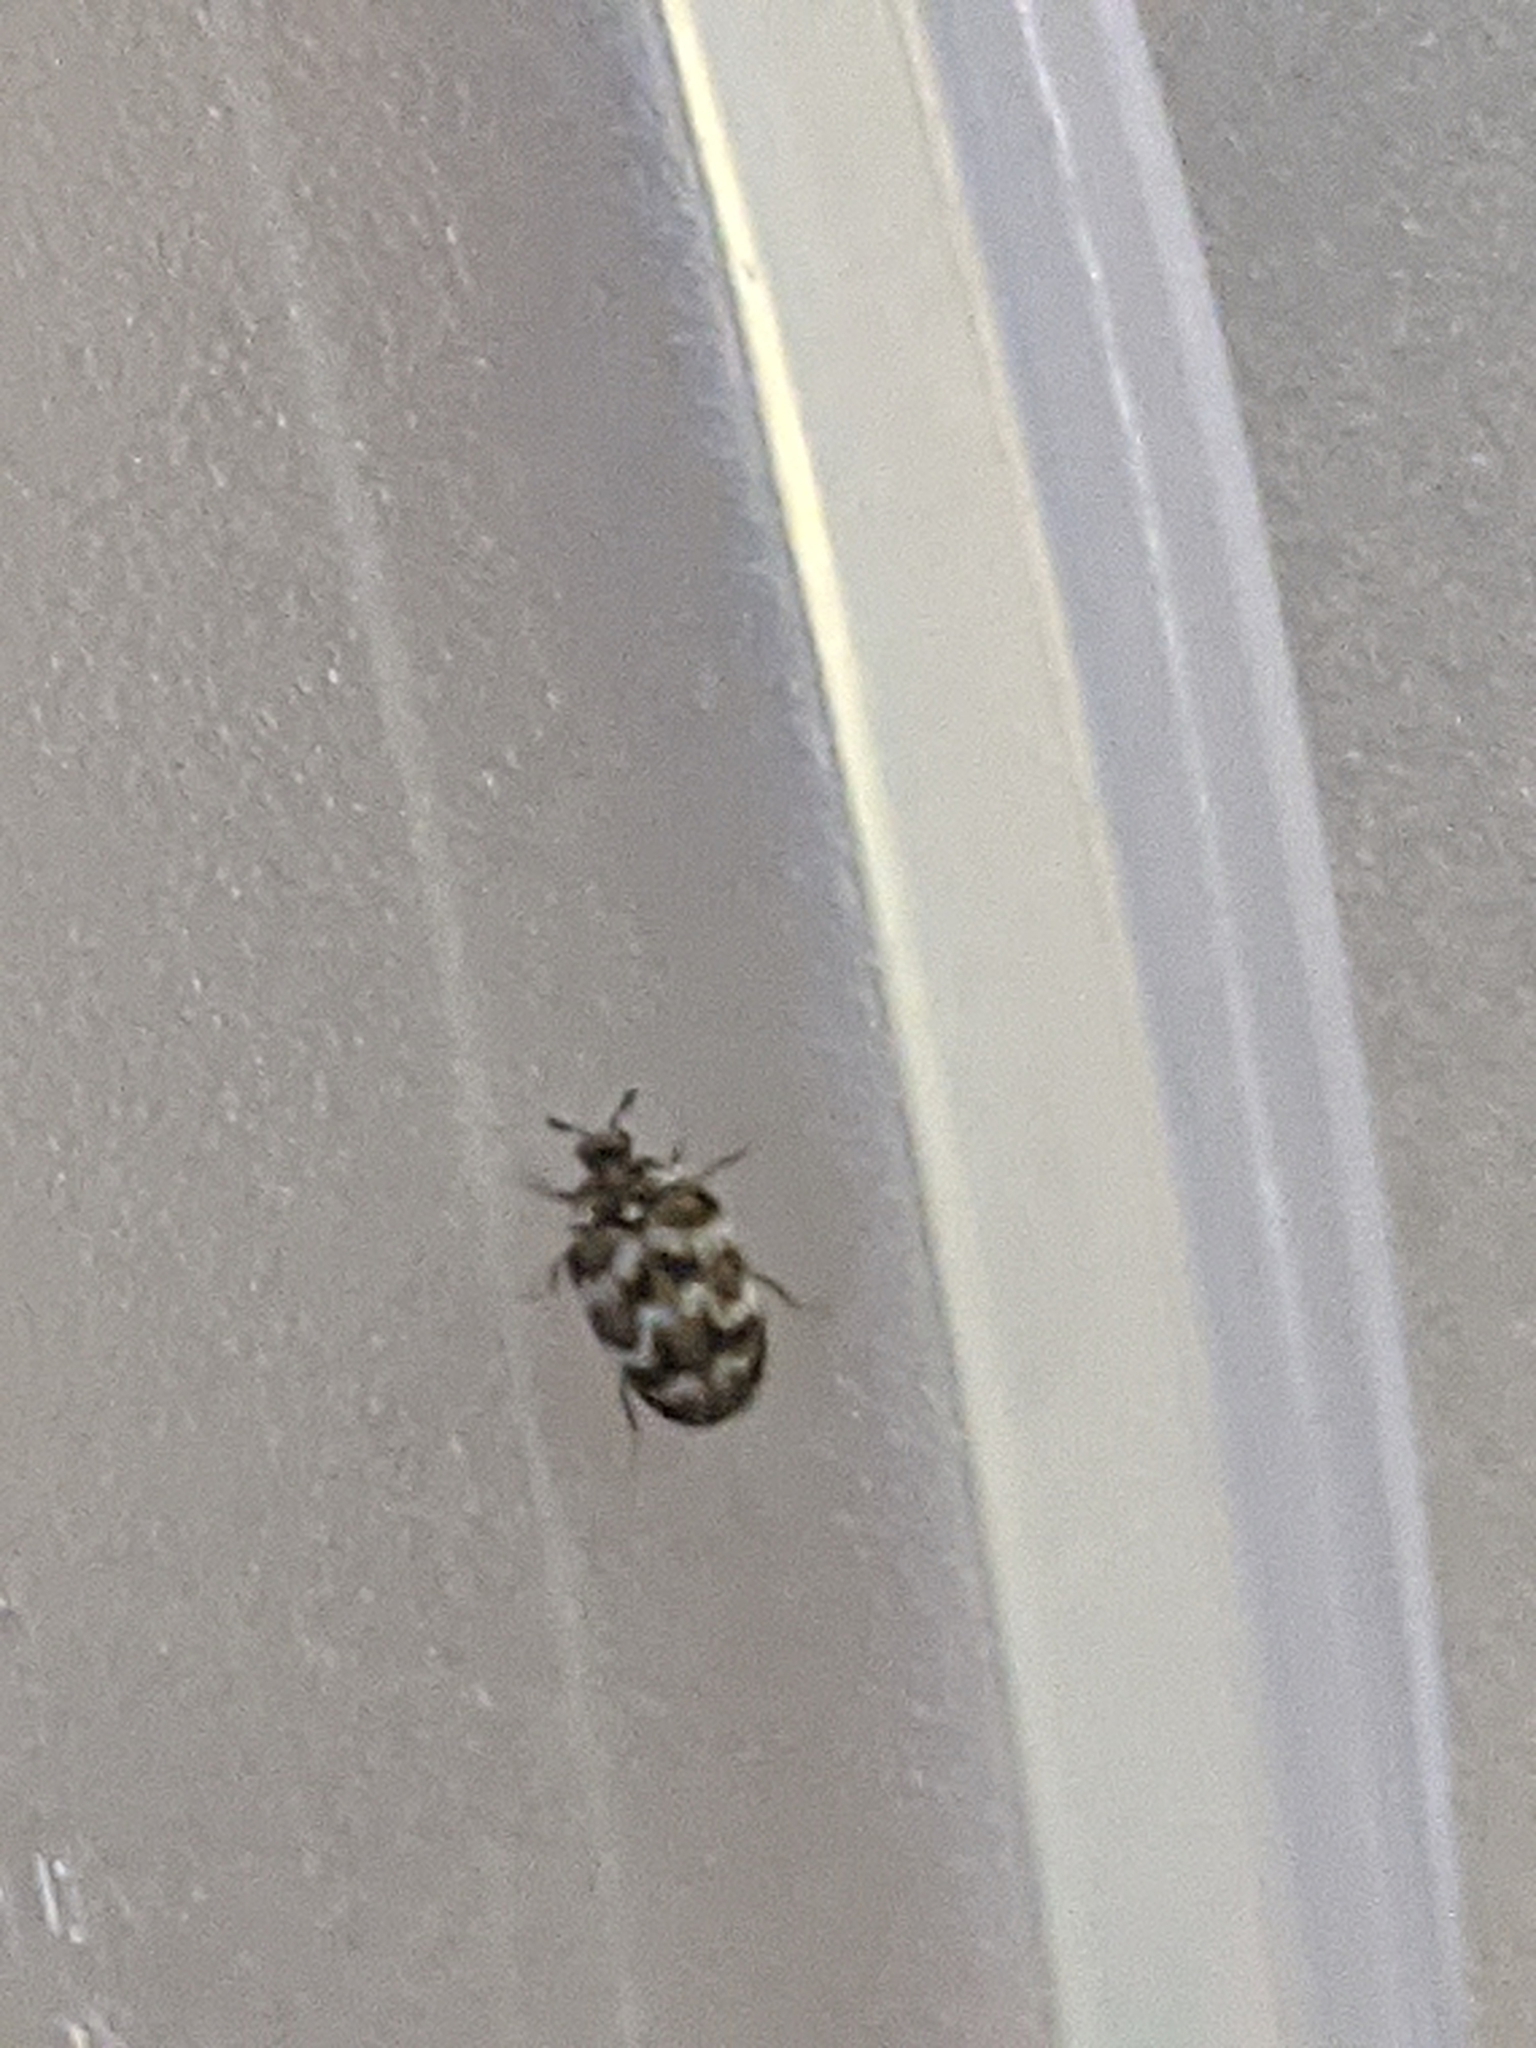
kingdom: Animalia
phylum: Arthropoda
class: Insecta
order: Coleoptera
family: Dermestidae
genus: Anthrenus
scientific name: Anthrenus verbasci
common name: Varied carpet beetle
